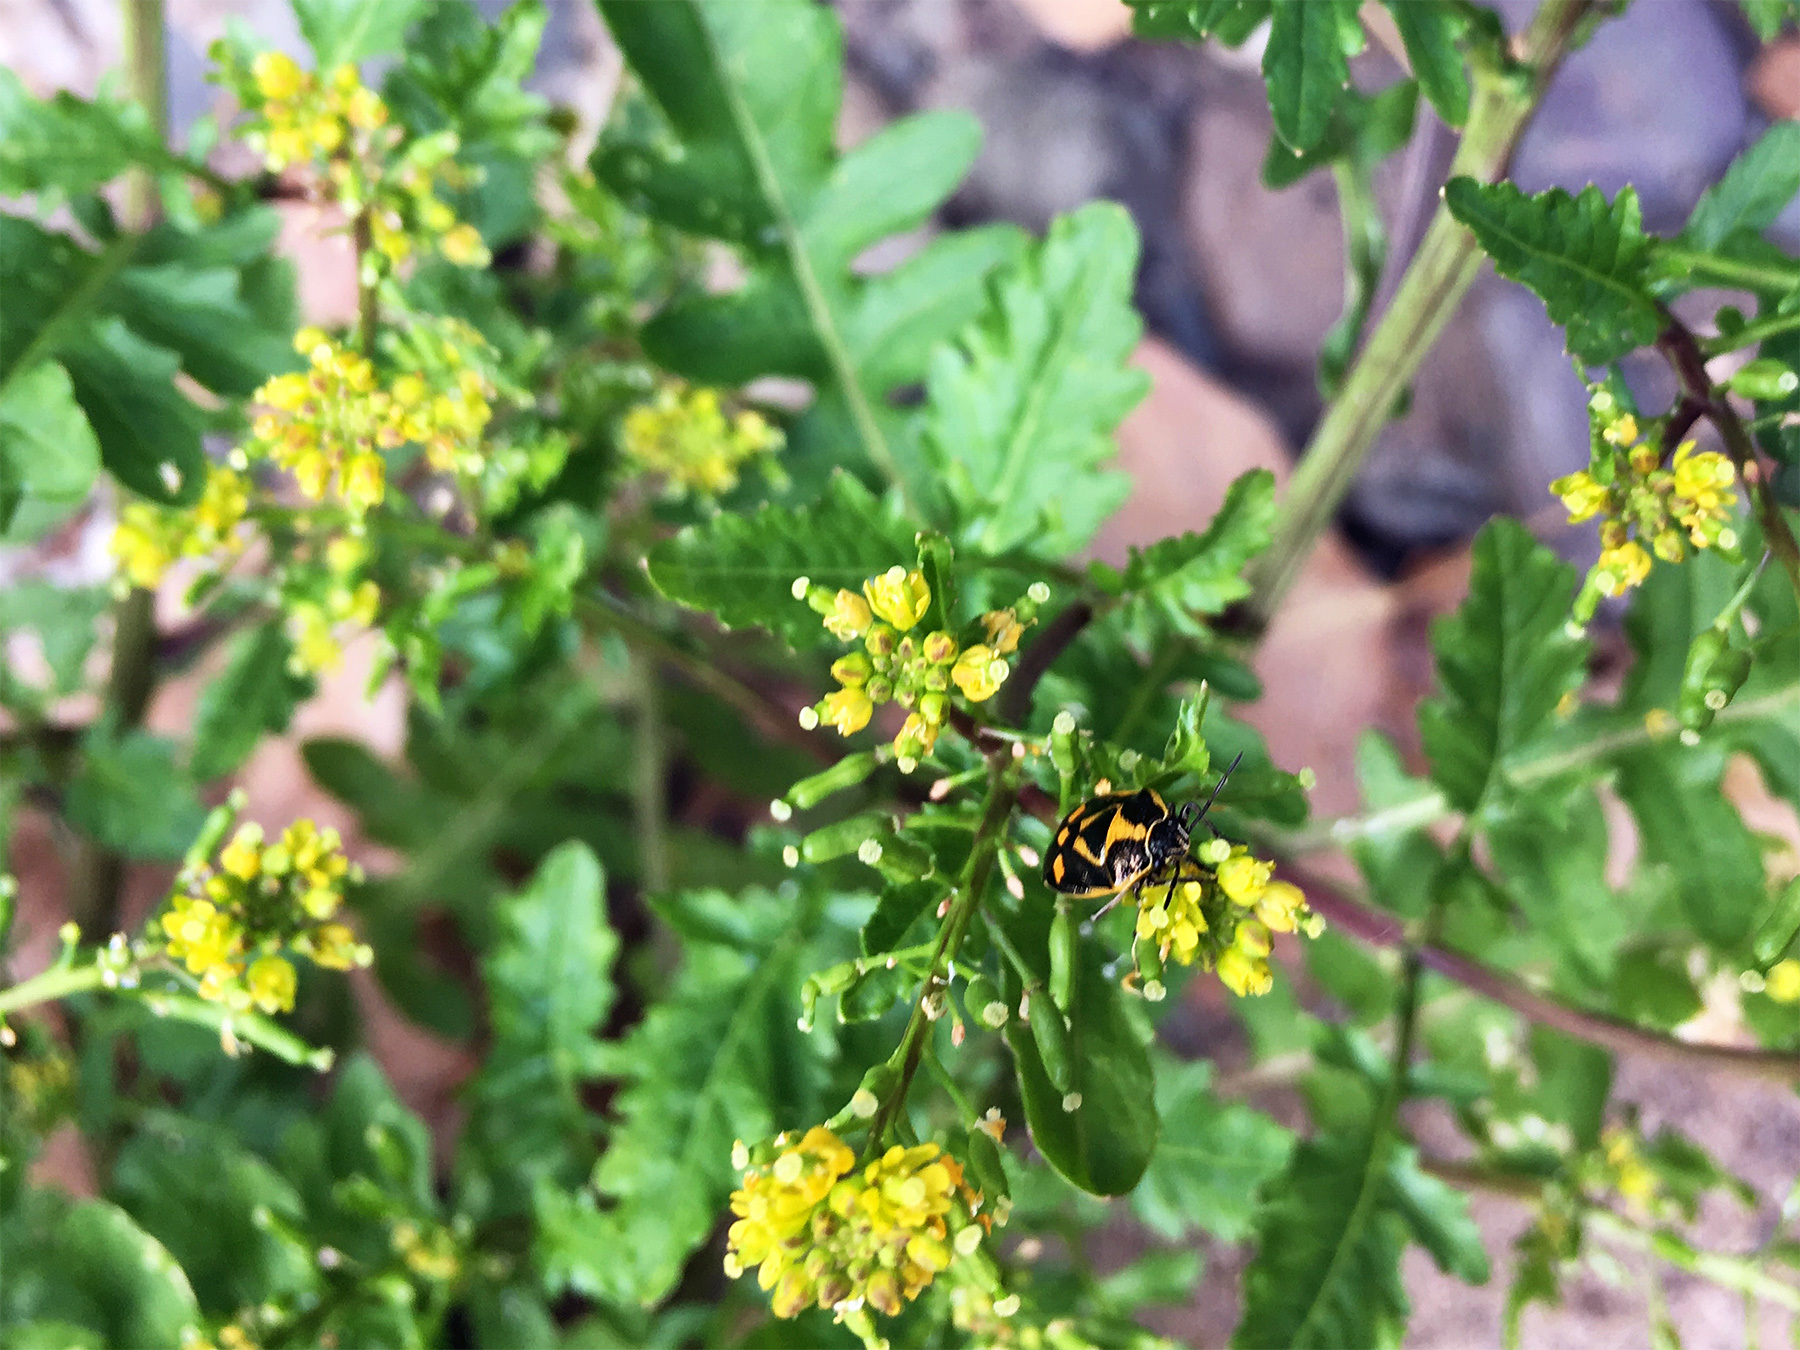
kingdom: Animalia
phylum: Arthropoda
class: Insecta
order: Hemiptera
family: Pentatomidae
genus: Eurydema
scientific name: Eurydema oleracea
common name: Cabbage bug
